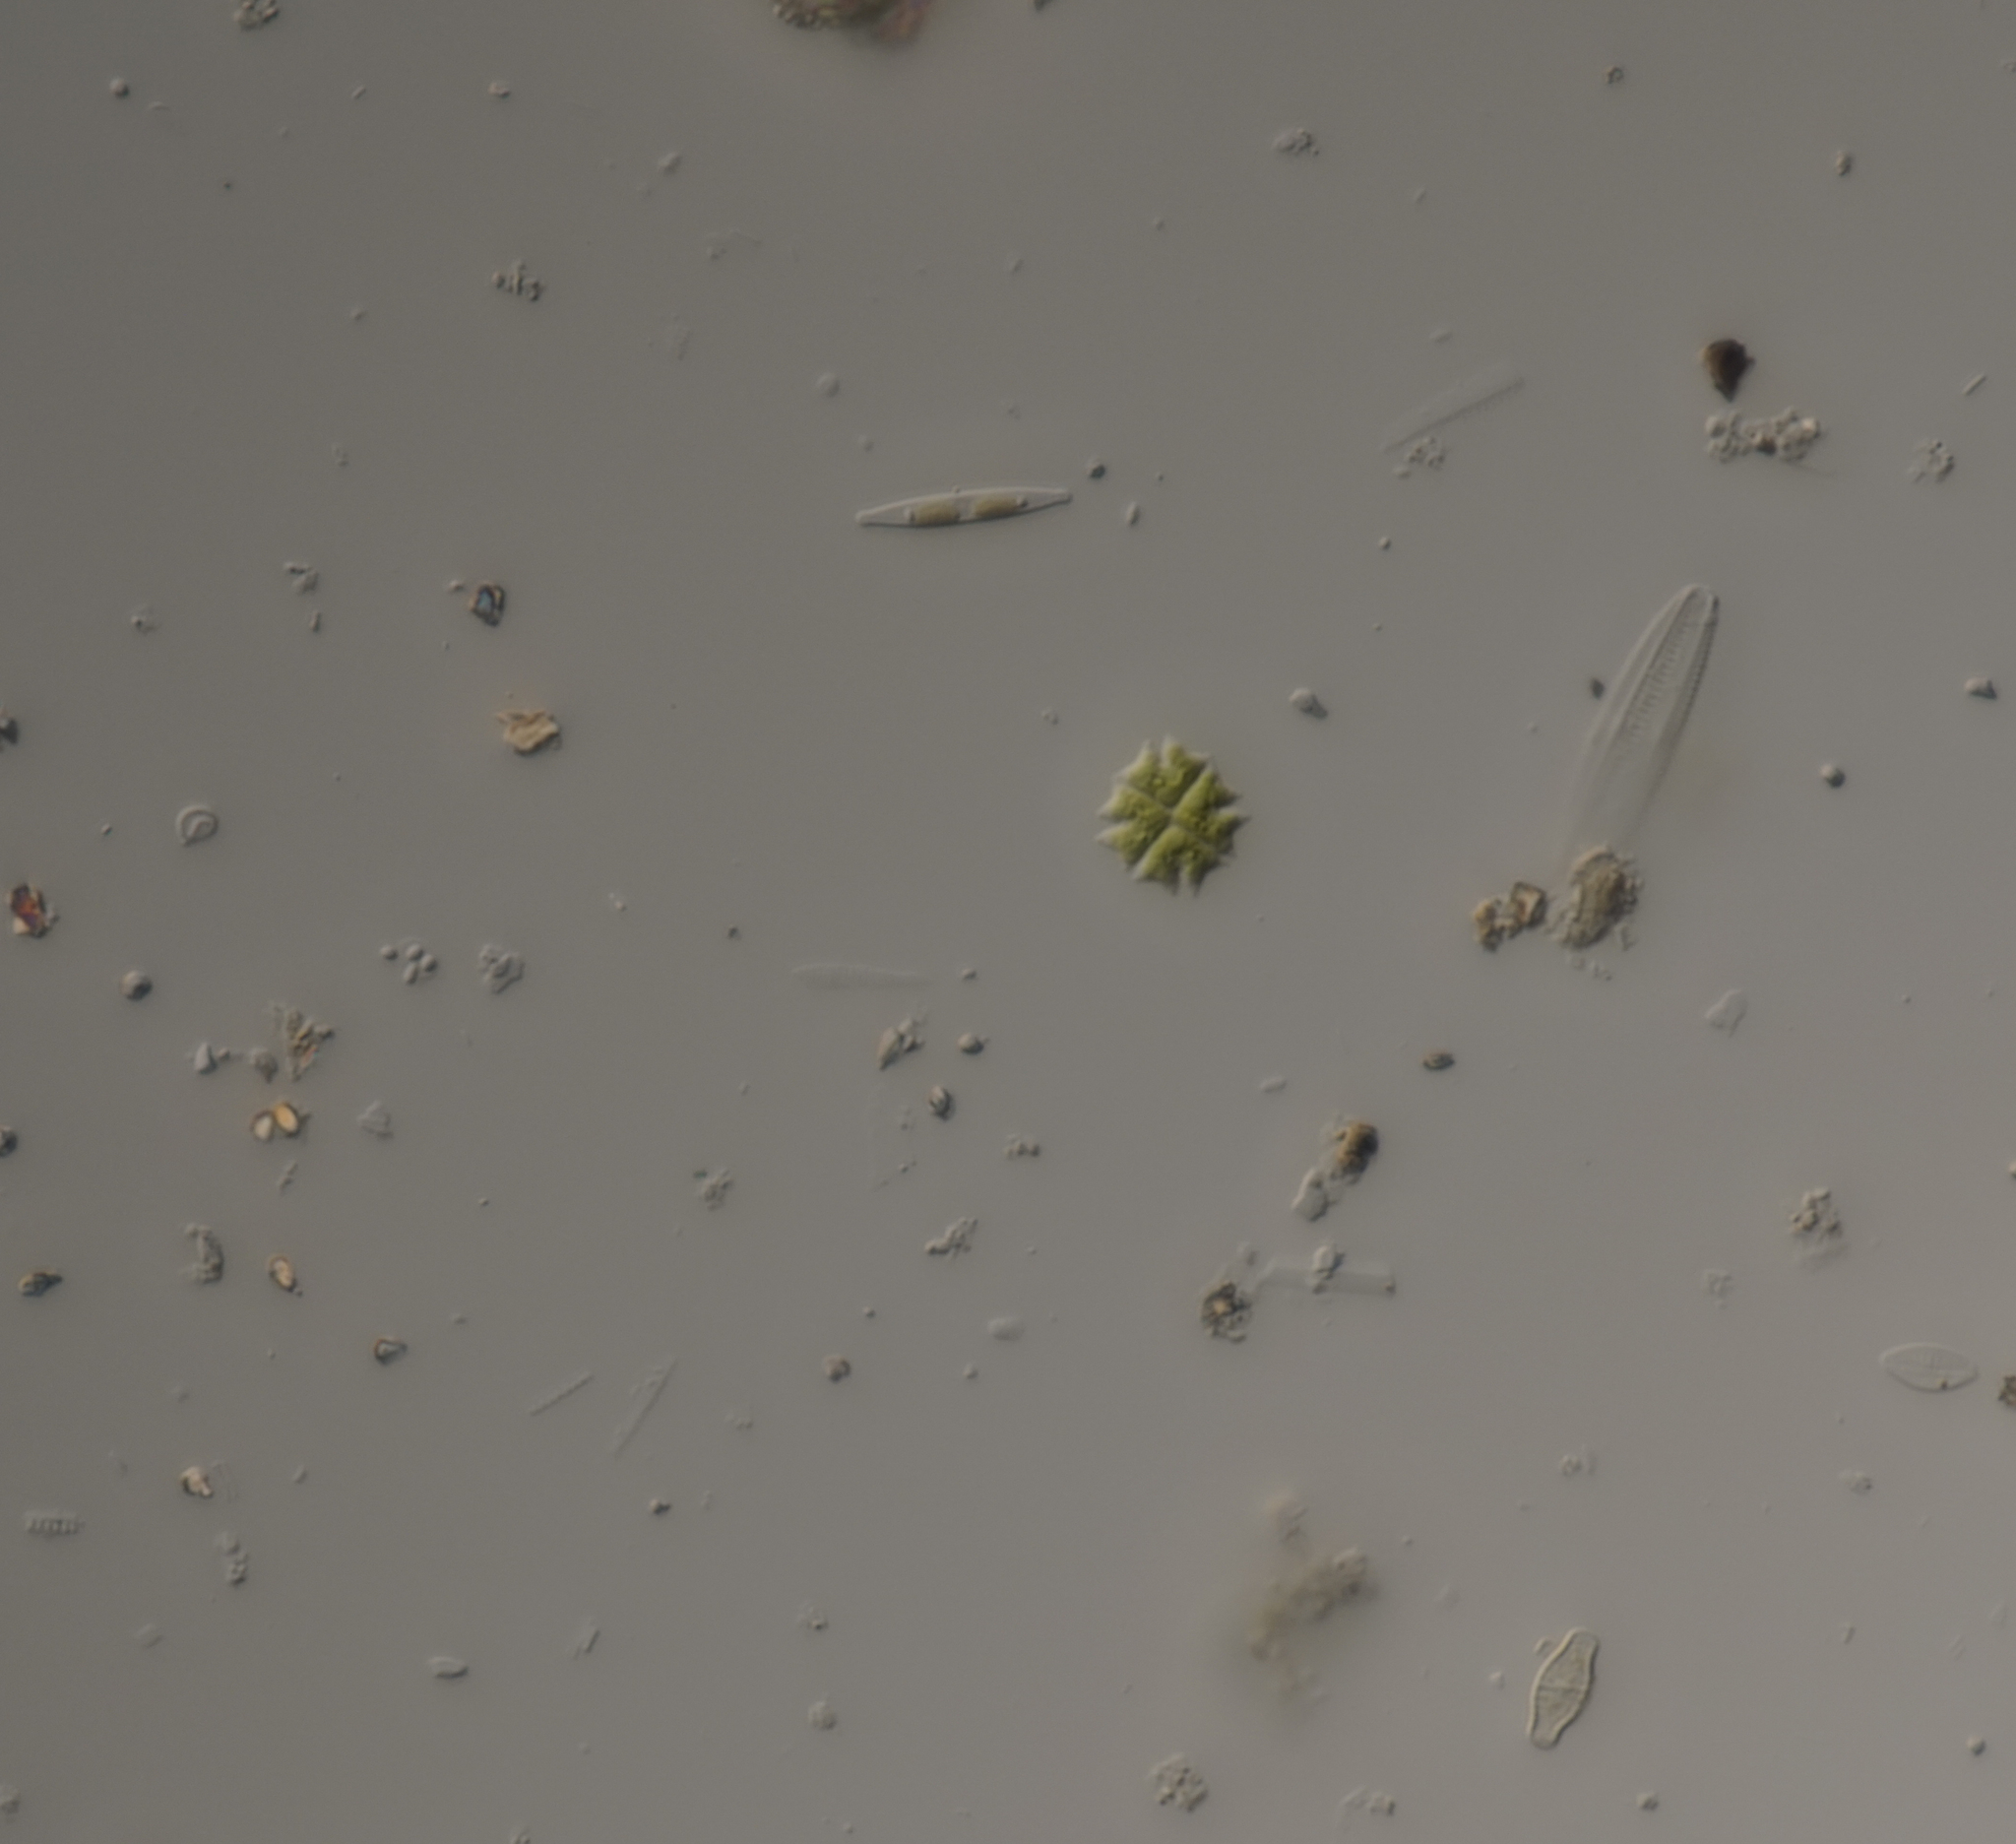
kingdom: Plantae
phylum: Chlorophyta
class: Chlorophyceae
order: Sphaeropleales
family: Hydrodictyaceae
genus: Stauridium
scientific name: Stauridium tetras
